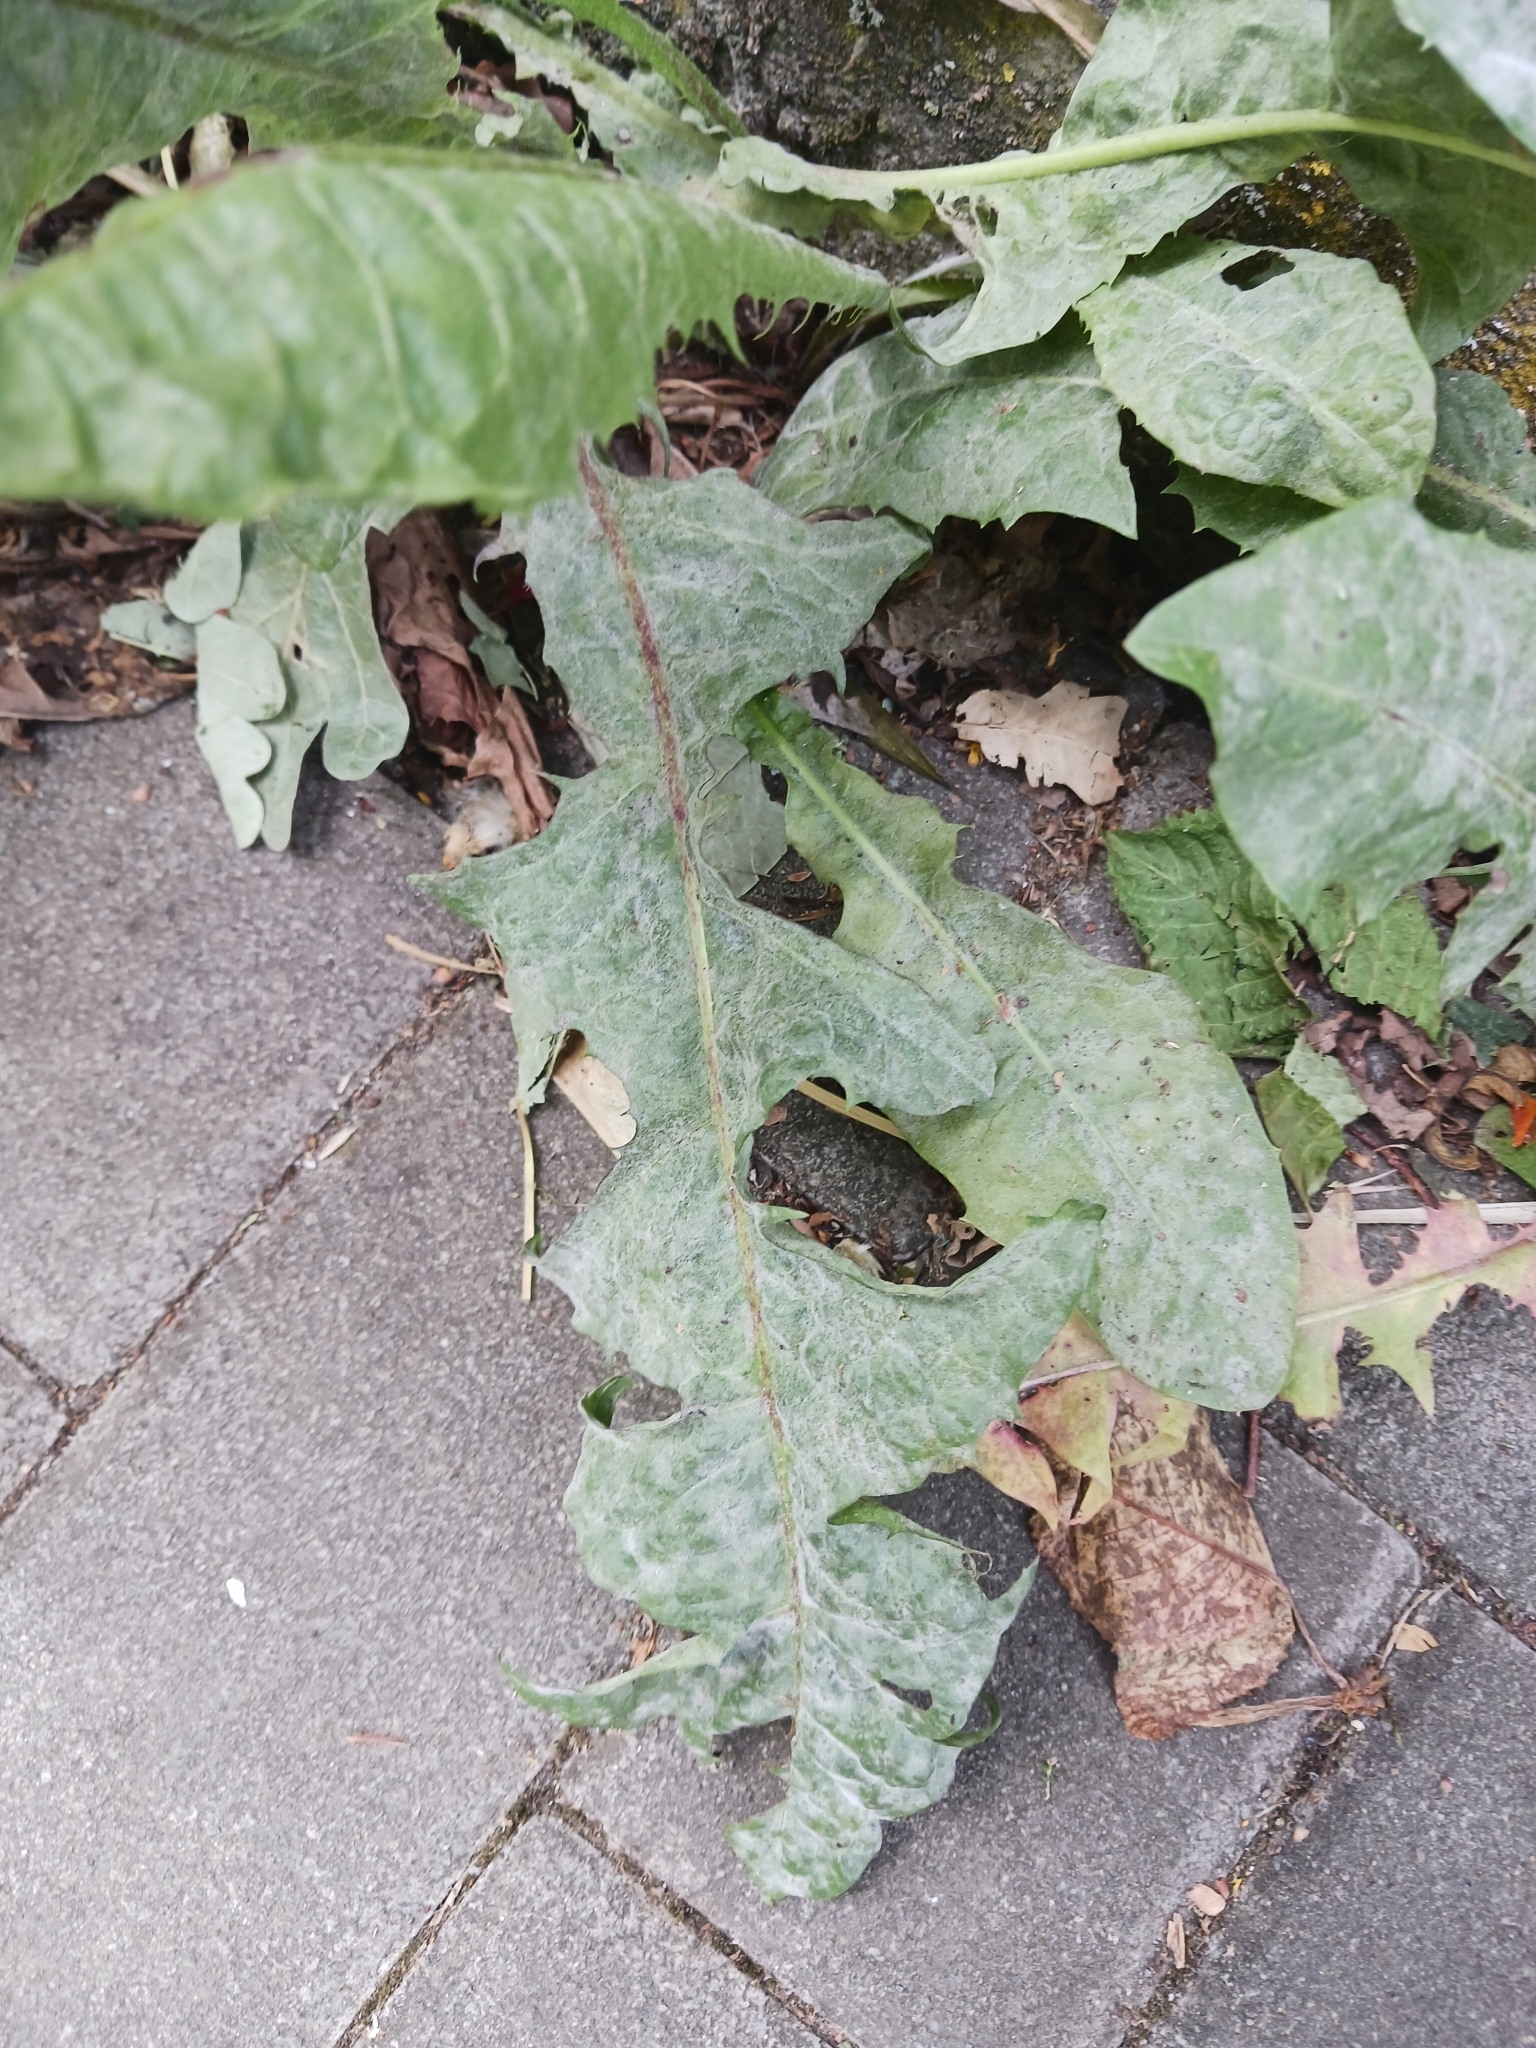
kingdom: Fungi
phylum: Ascomycota
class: Leotiomycetes
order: Helotiales
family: Erysiphaceae
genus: Podosphaera
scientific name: Podosphaera erigerontis-canadensis
